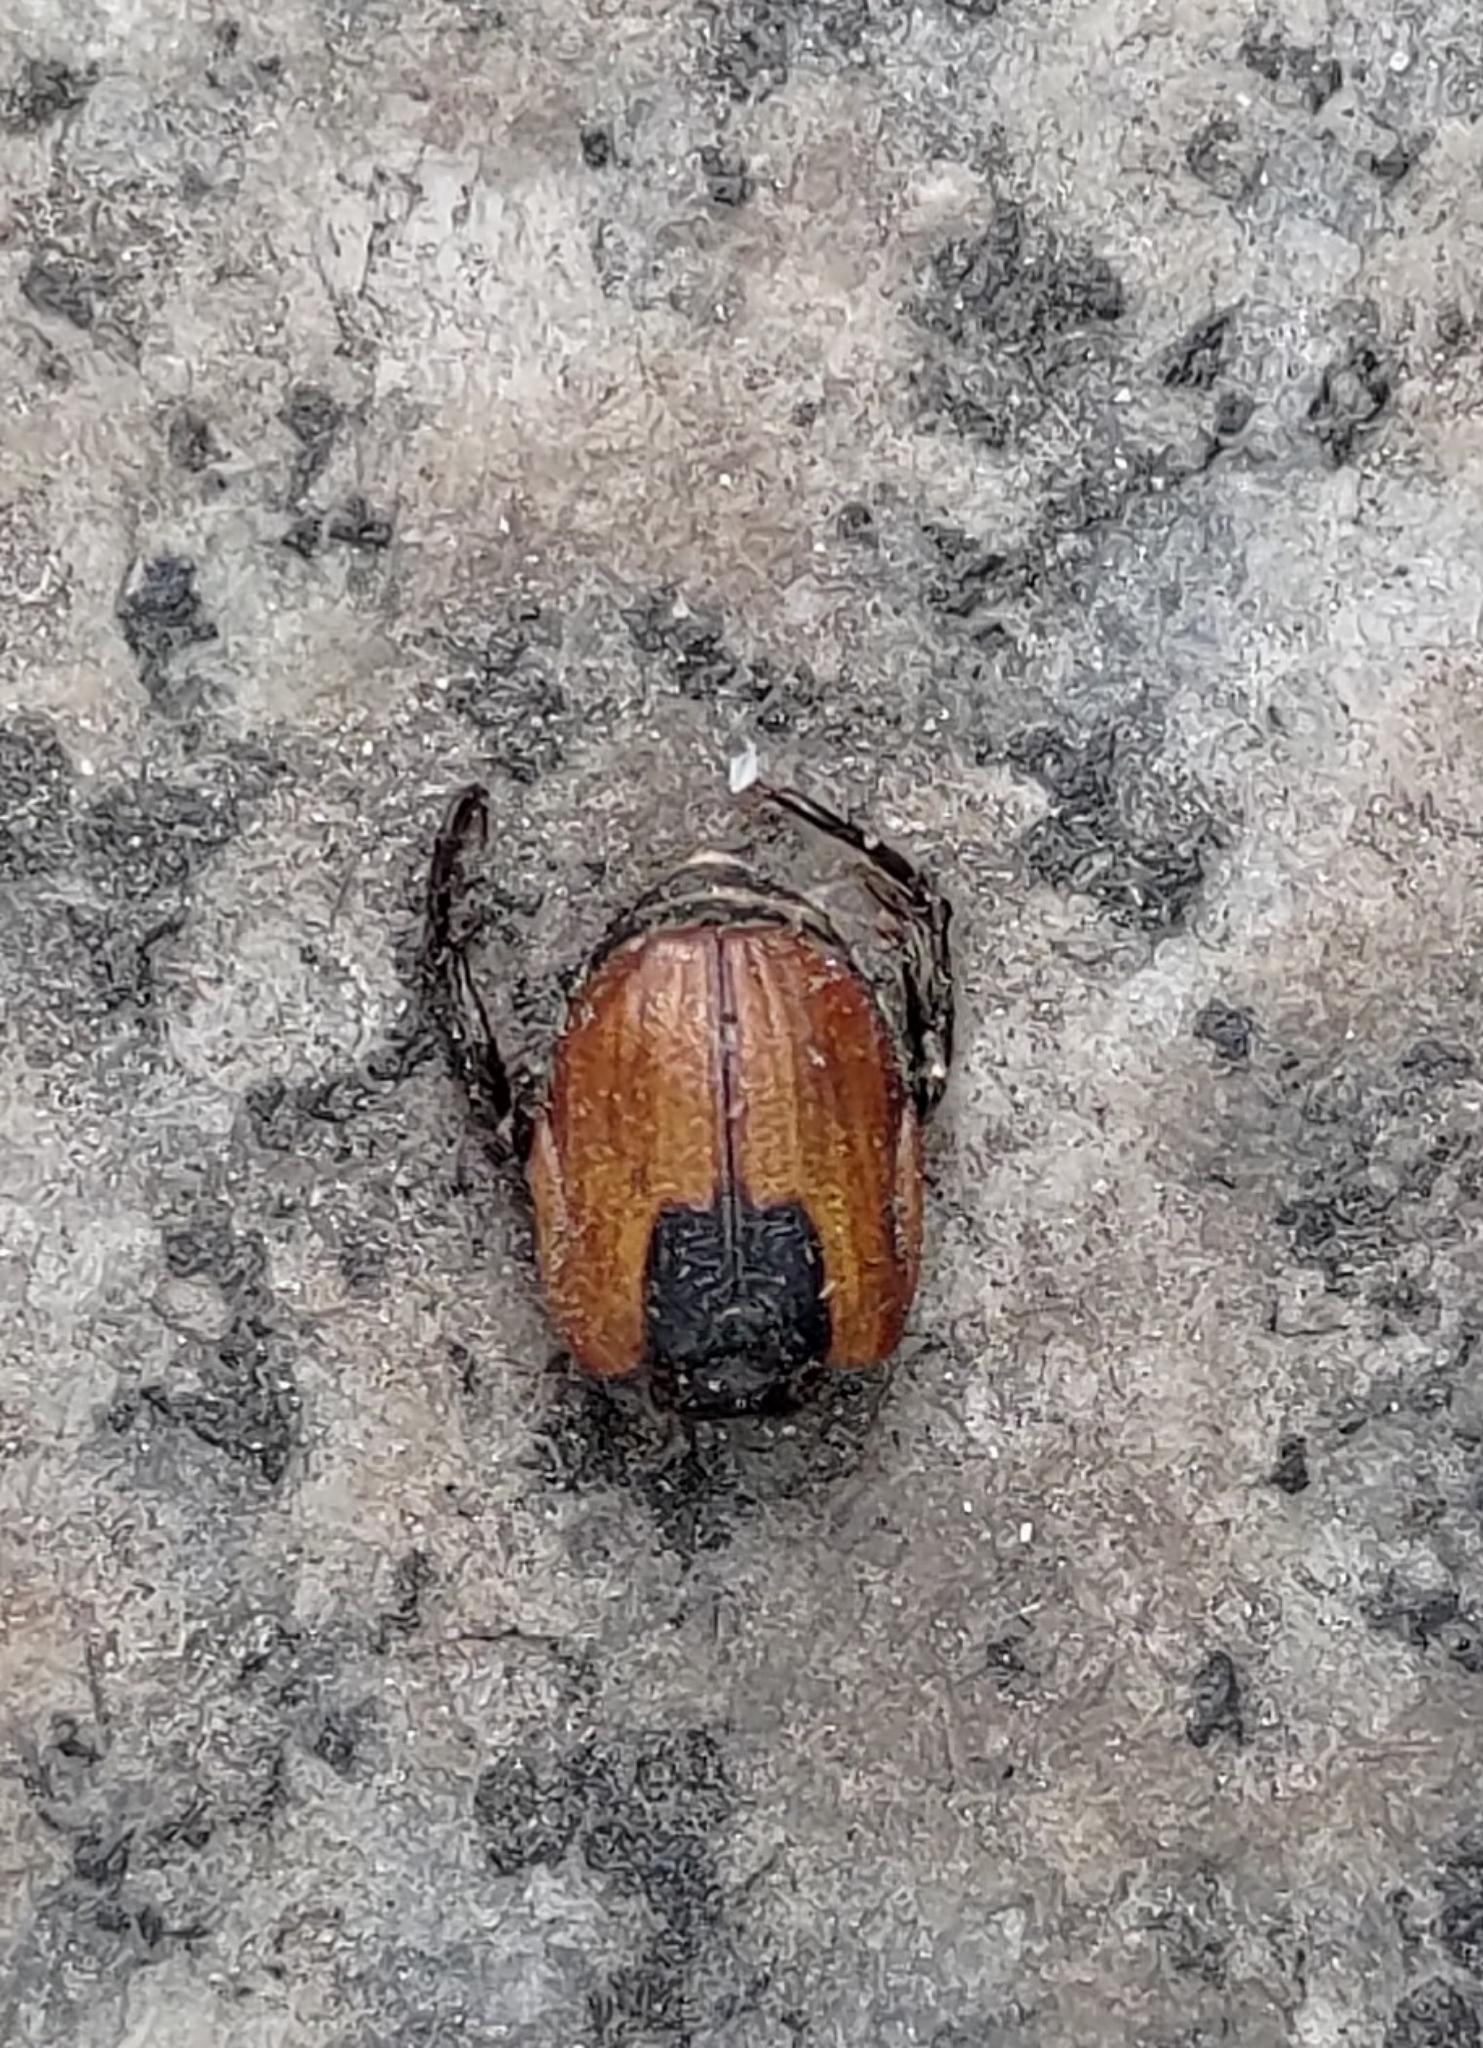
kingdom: Animalia
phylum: Arthropoda
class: Insecta
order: Coleoptera
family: Scarabaeidae
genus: Anisoplia
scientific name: Anisoplia austriaca
